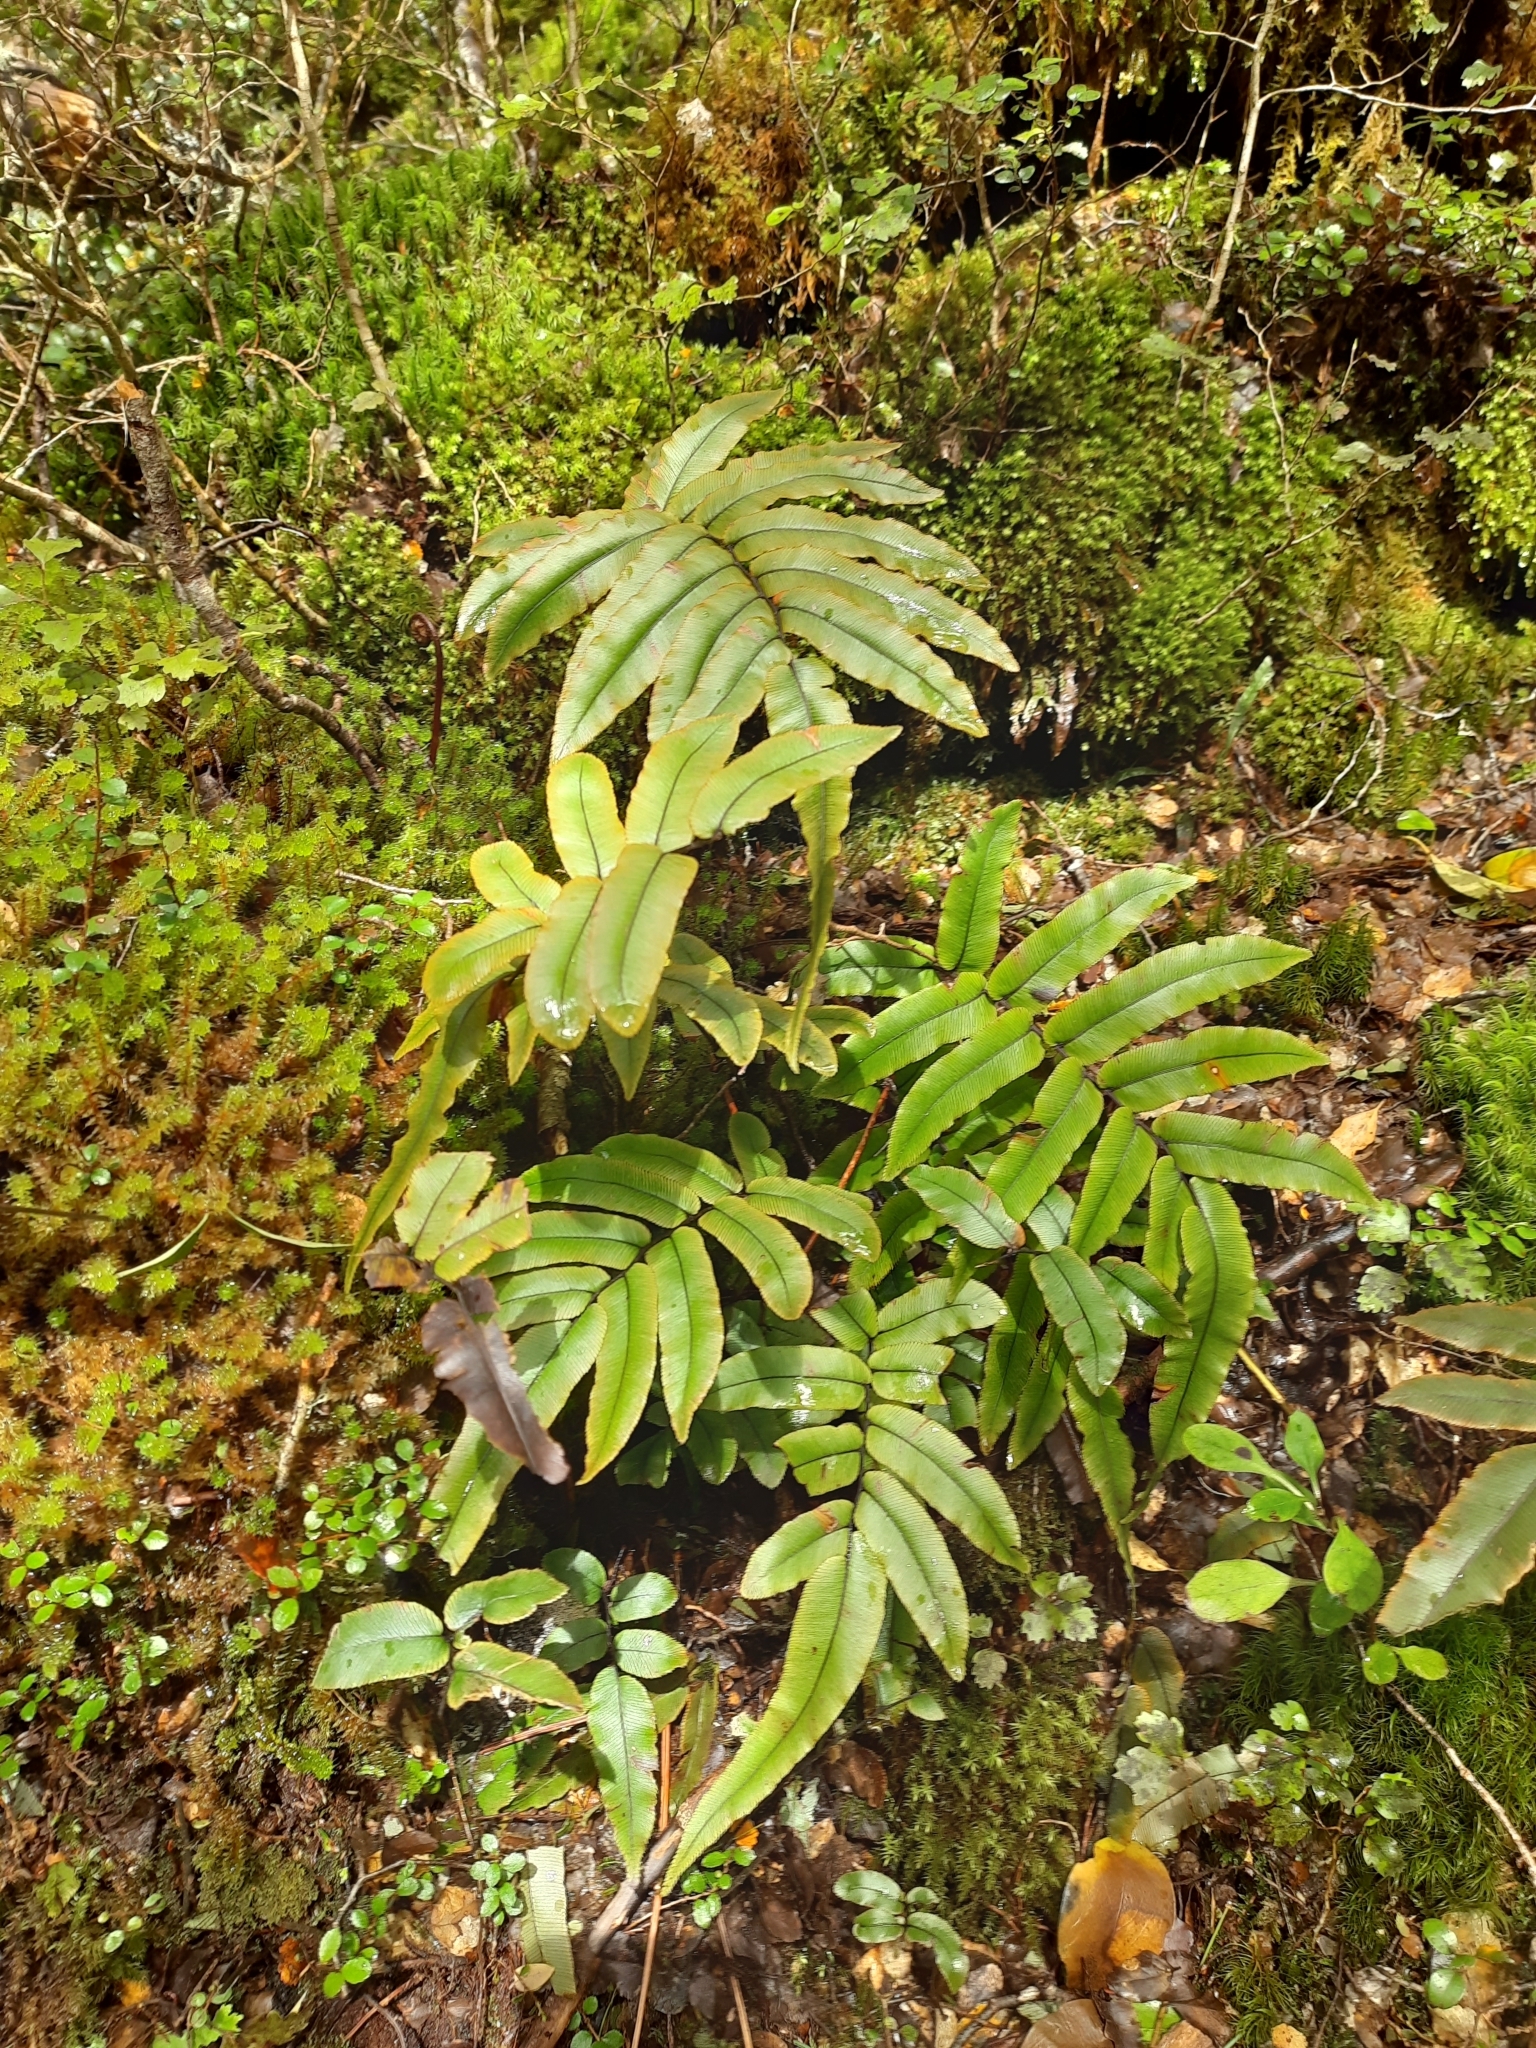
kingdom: Plantae
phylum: Tracheophyta
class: Polypodiopsida
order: Polypodiales
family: Blechnaceae
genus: Parablechnum
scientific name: Parablechnum procerum
